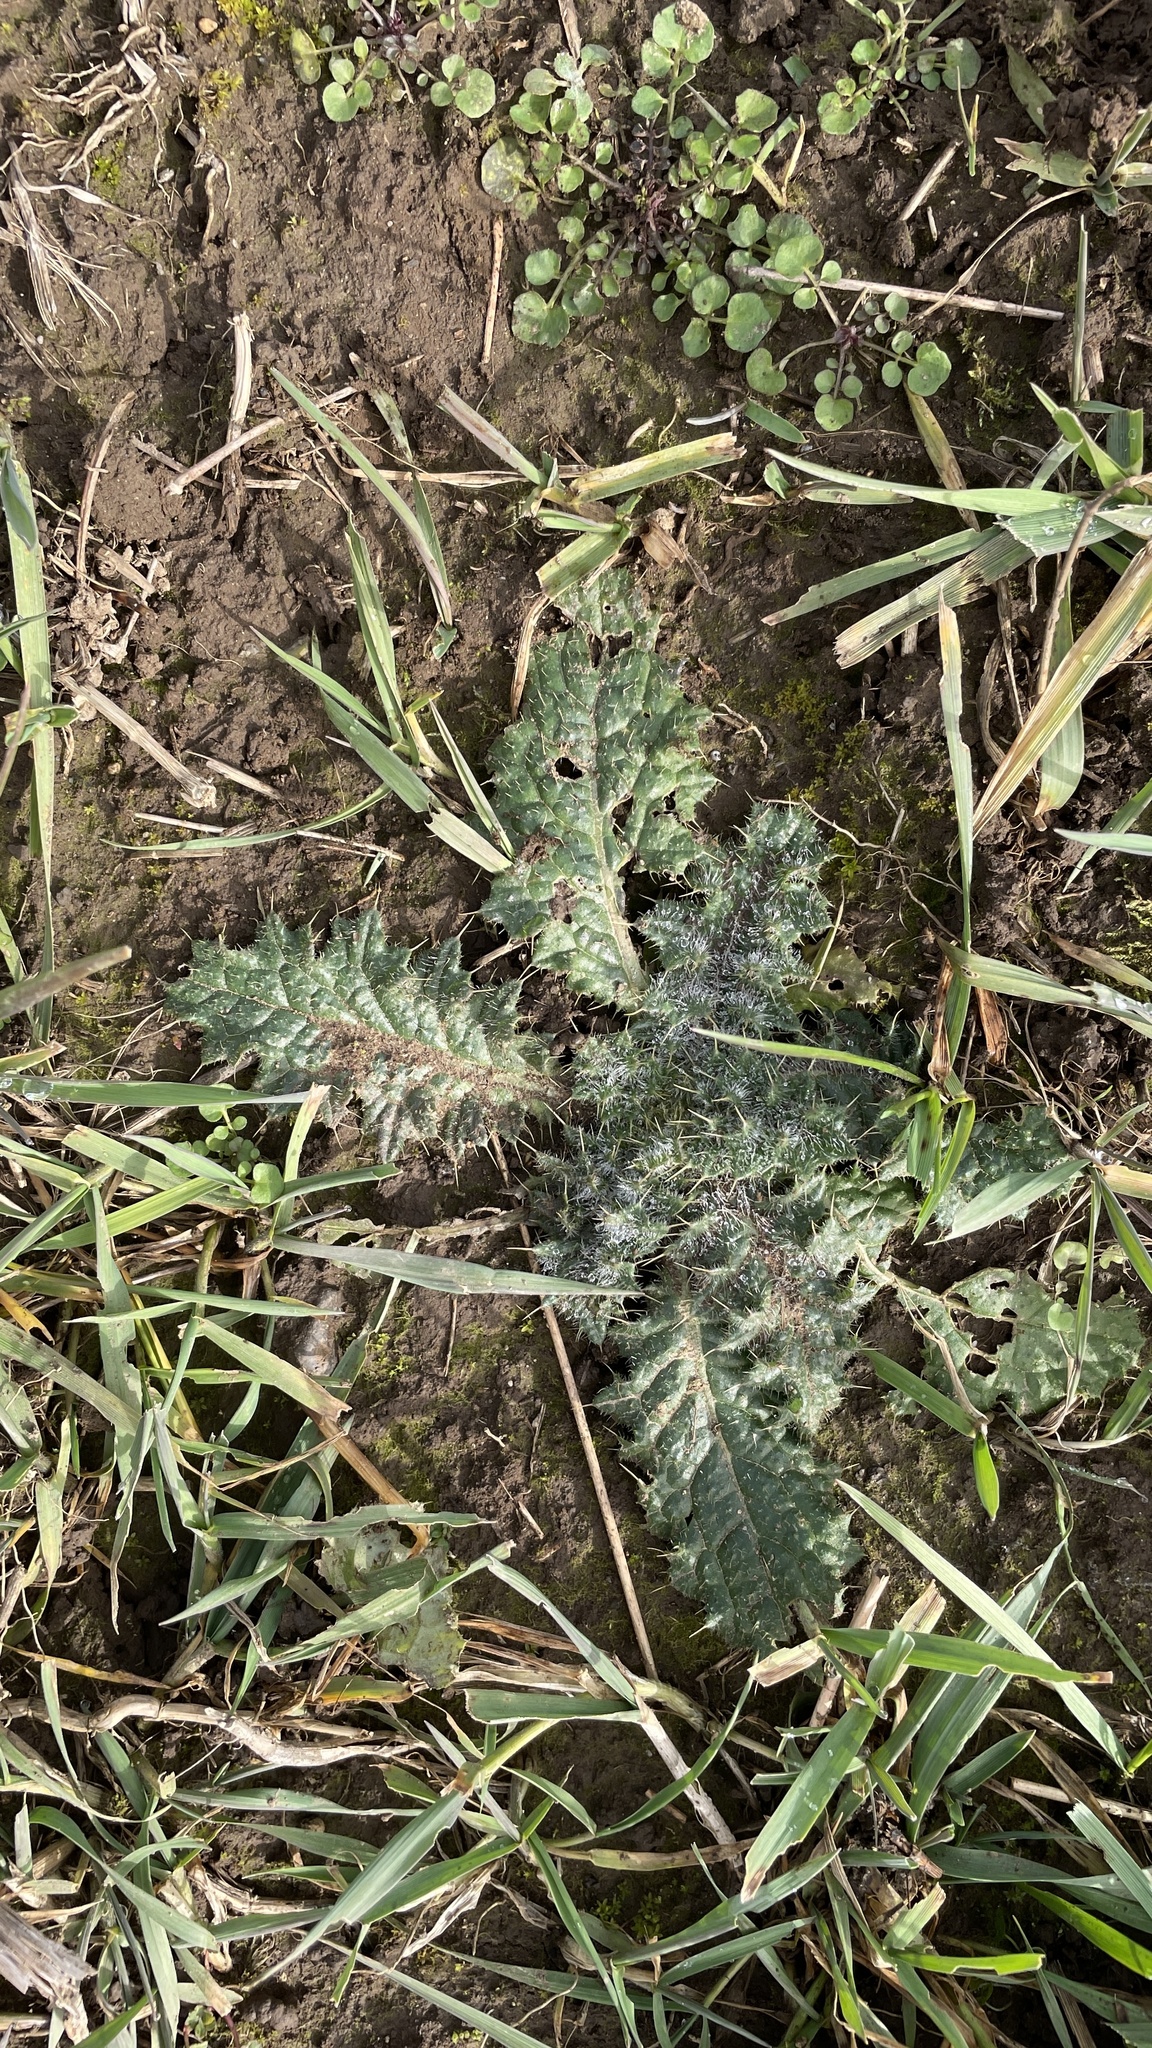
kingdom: Plantae
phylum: Tracheophyta
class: Magnoliopsida
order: Asterales
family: Asteraceae
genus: Cirsium
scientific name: Cirsium vulgare
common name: Bull thistle
